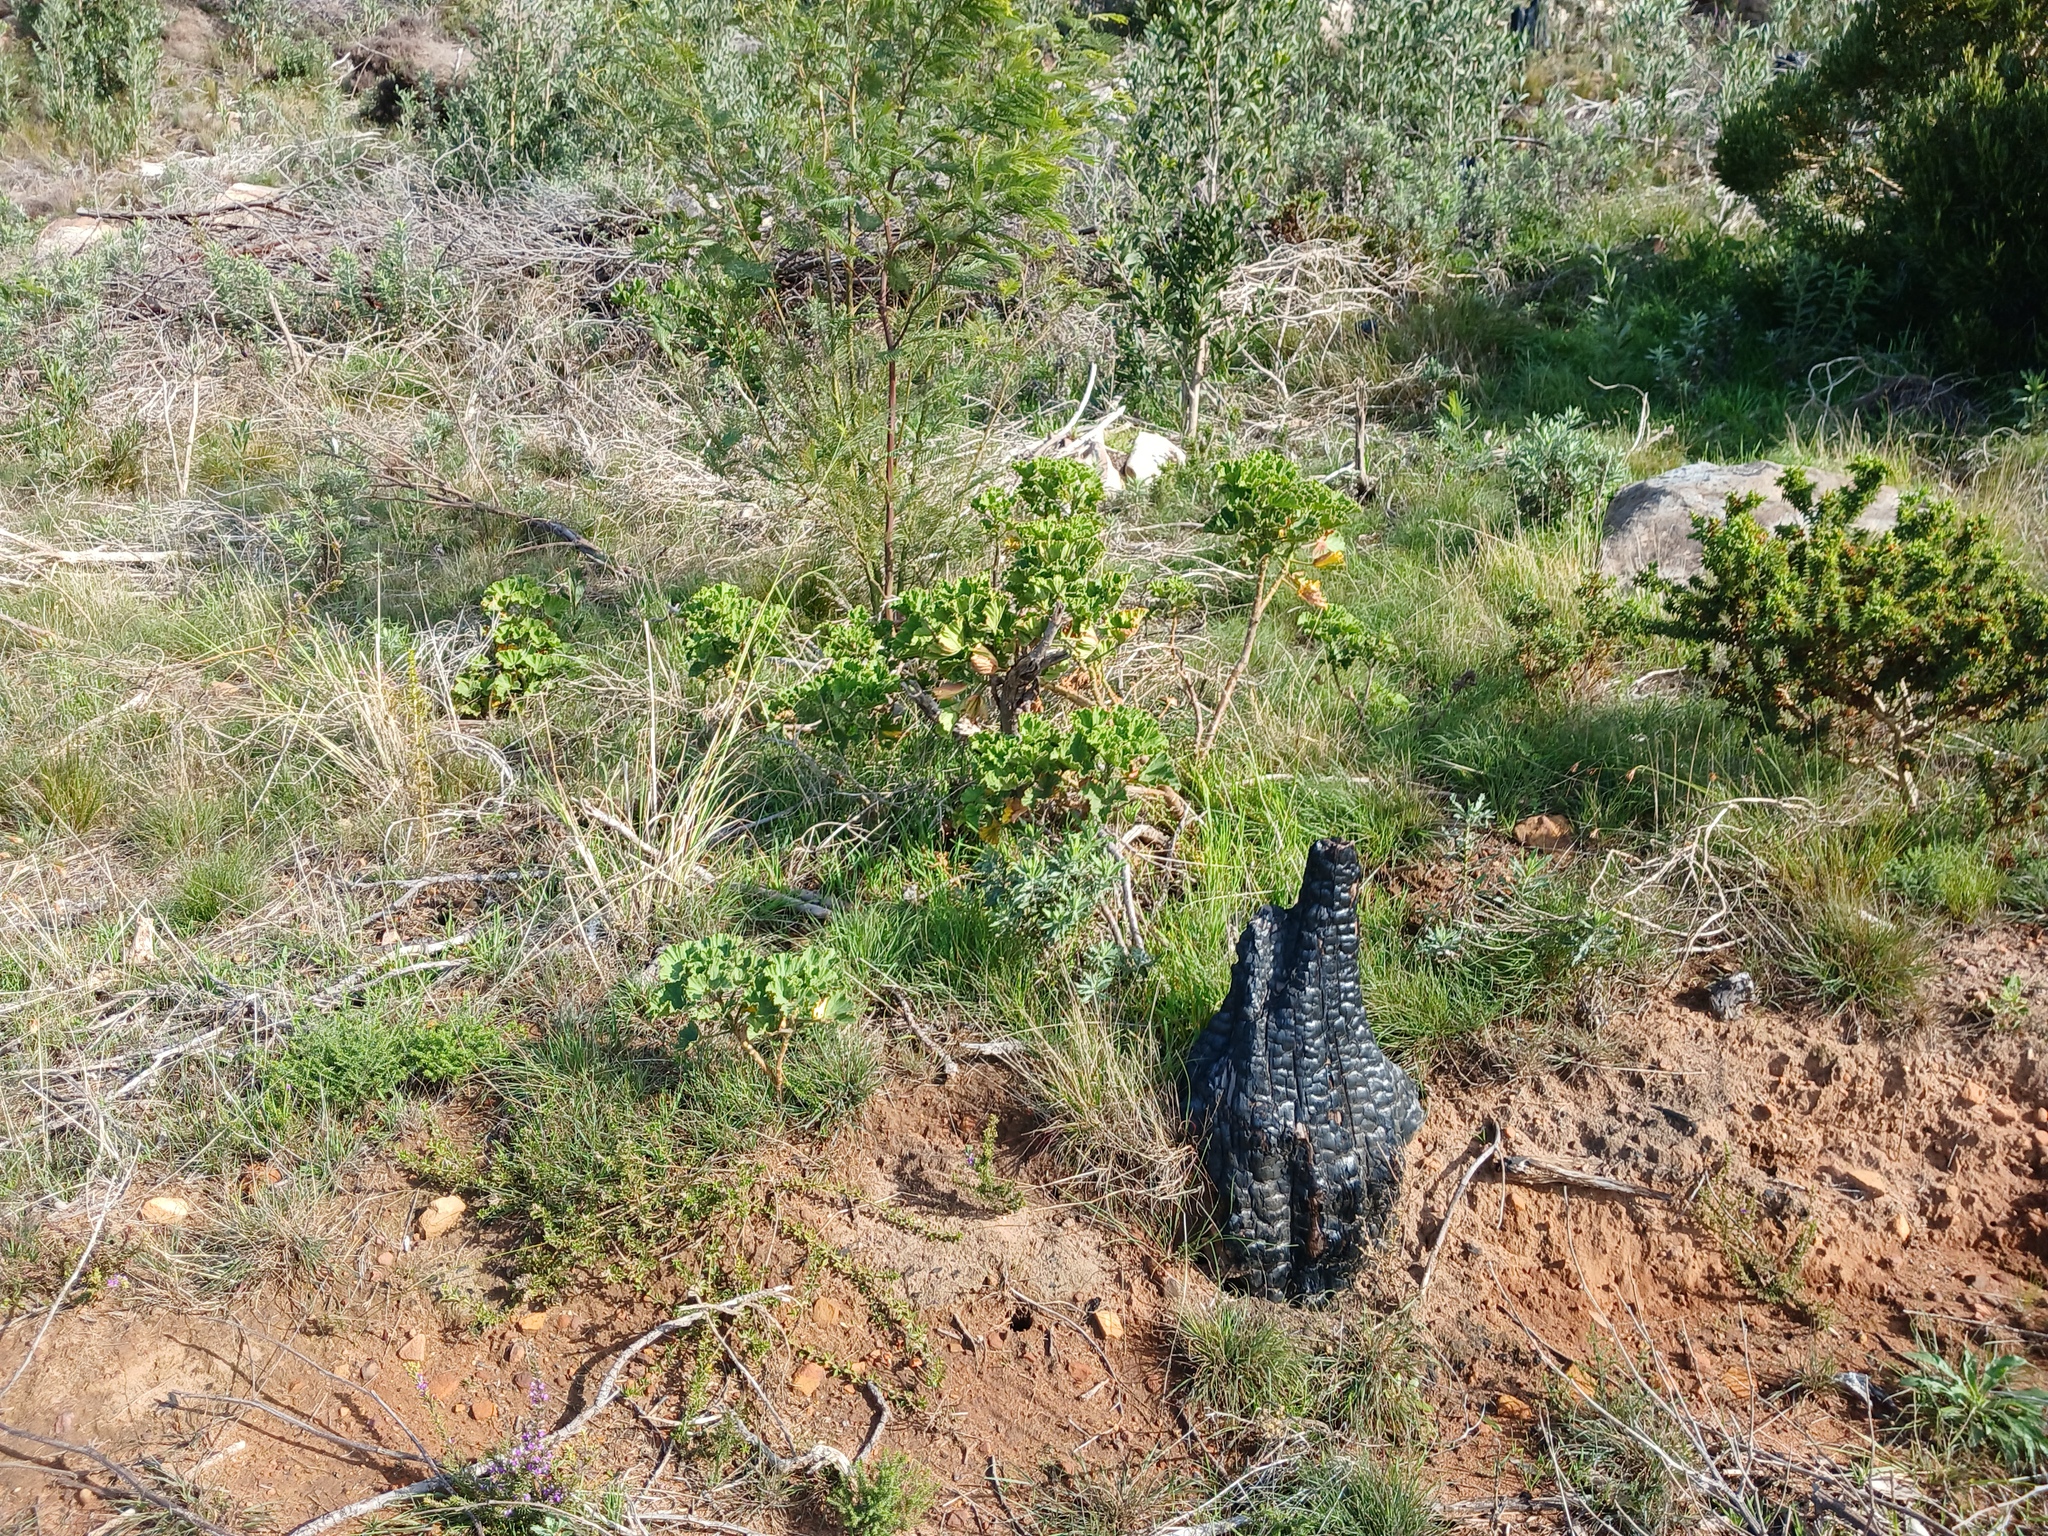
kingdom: Plantae
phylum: Tracheophyta
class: Magnoliopsida
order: Geraniales
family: Geraniaceae
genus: Pelargonium
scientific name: Pelargonium cucullatum
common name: Tree pelargonium
